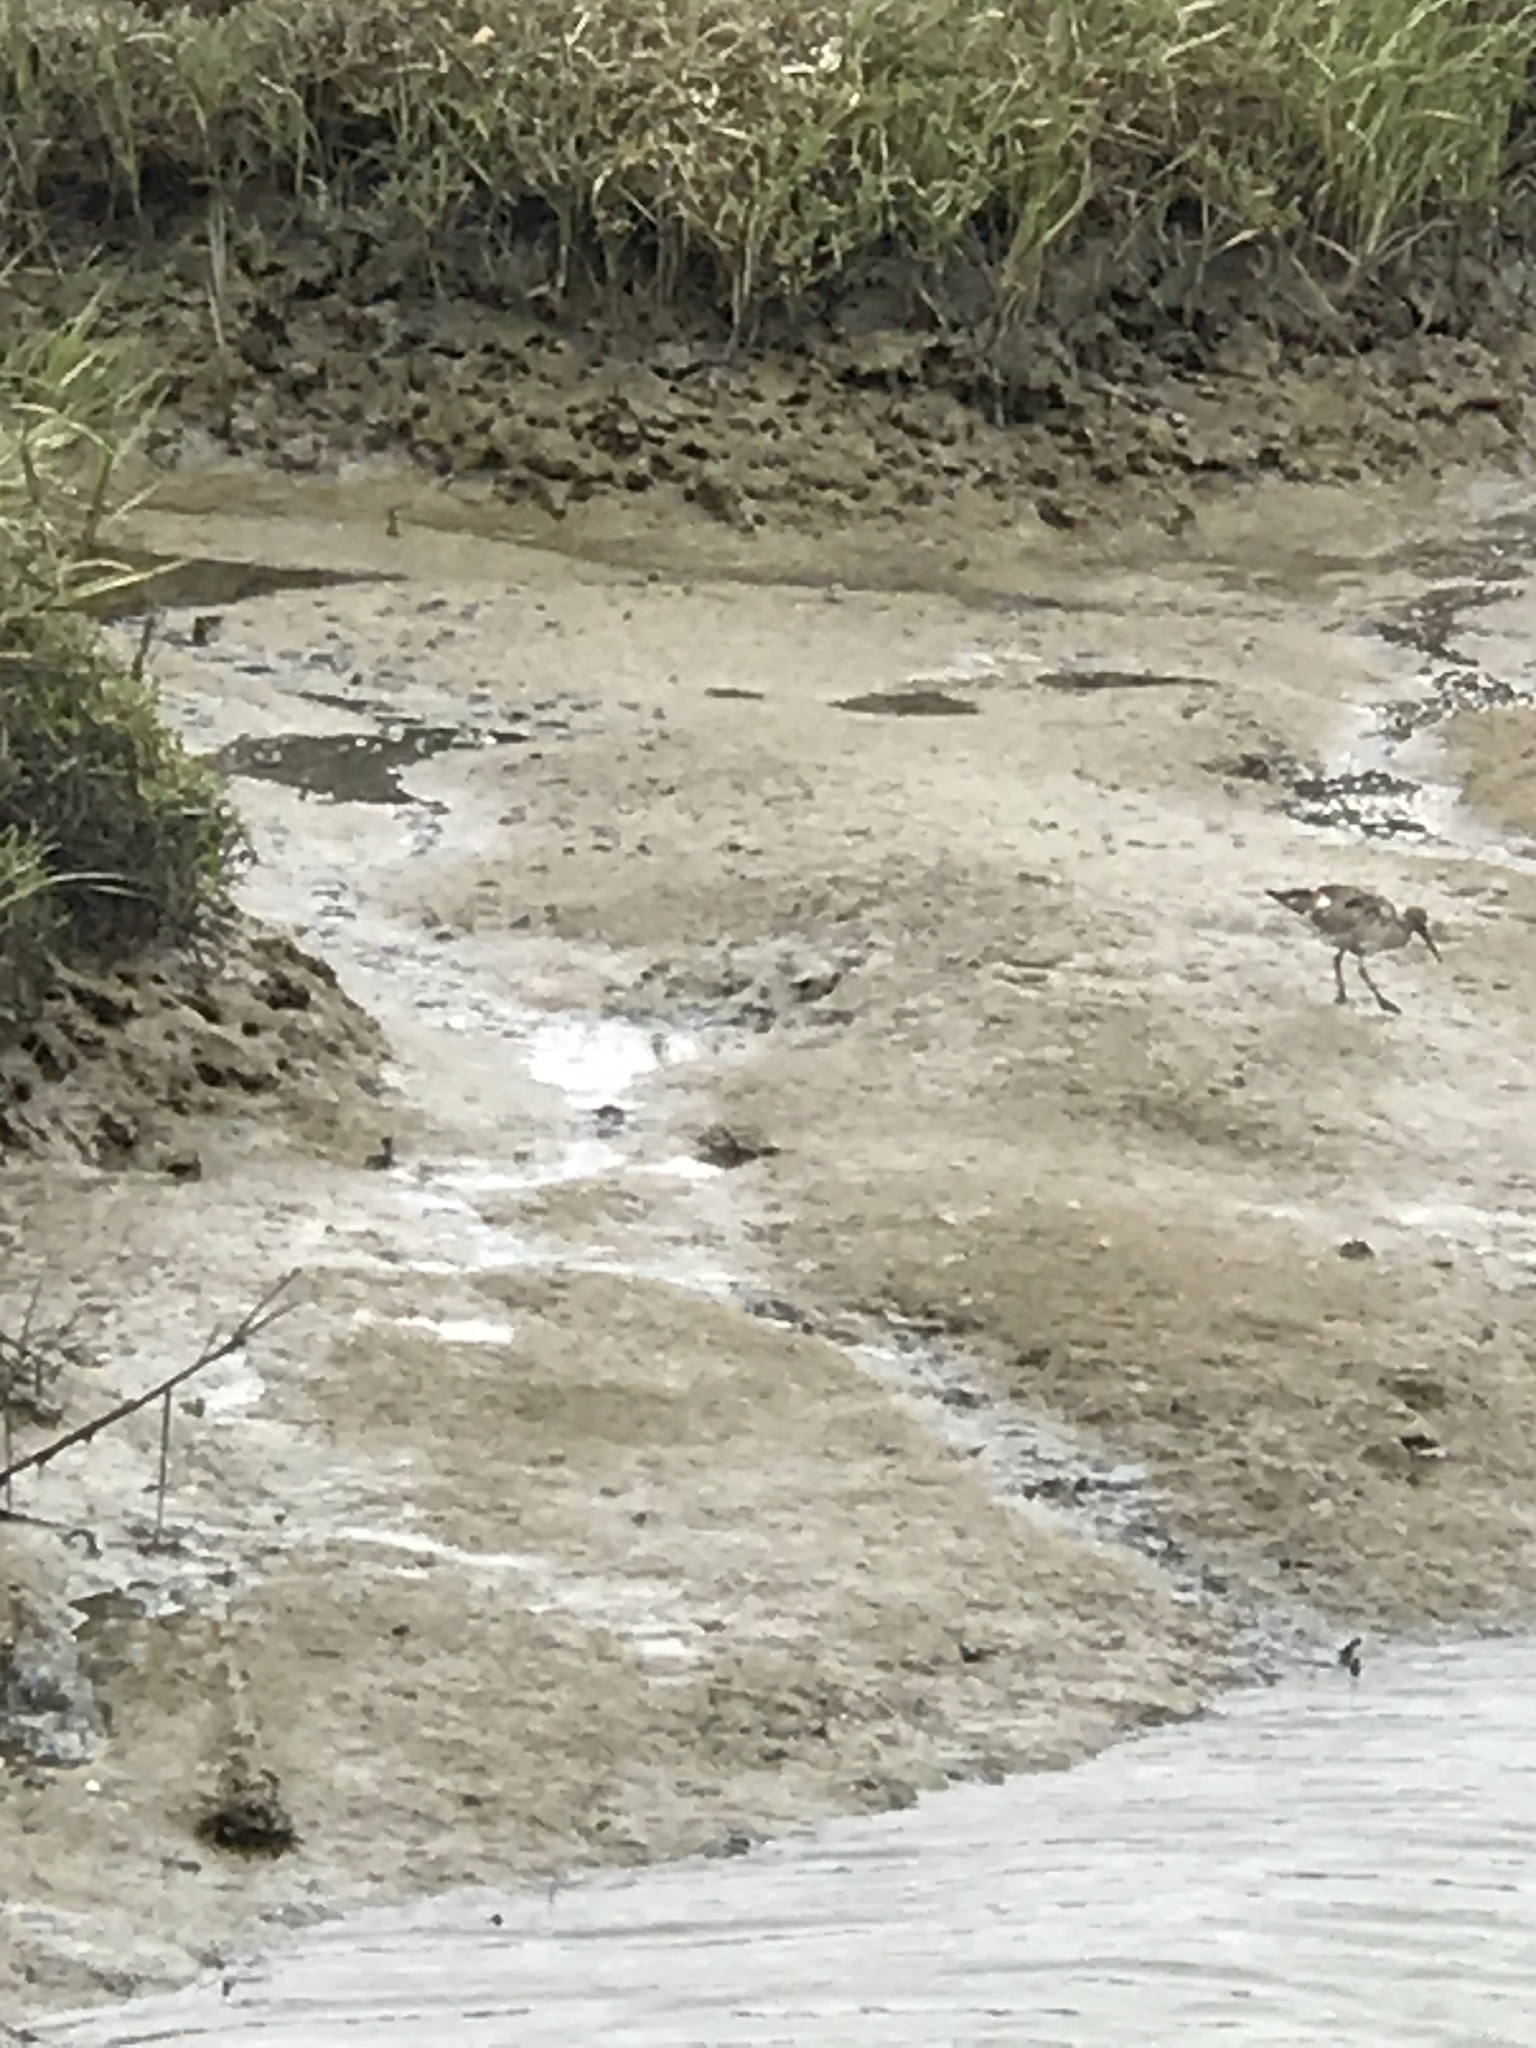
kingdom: Animalia
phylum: Chordata
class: Aves
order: Charadriiformes
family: Scolopacidae
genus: Tringa
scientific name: Tringa semipalmata
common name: Willet
